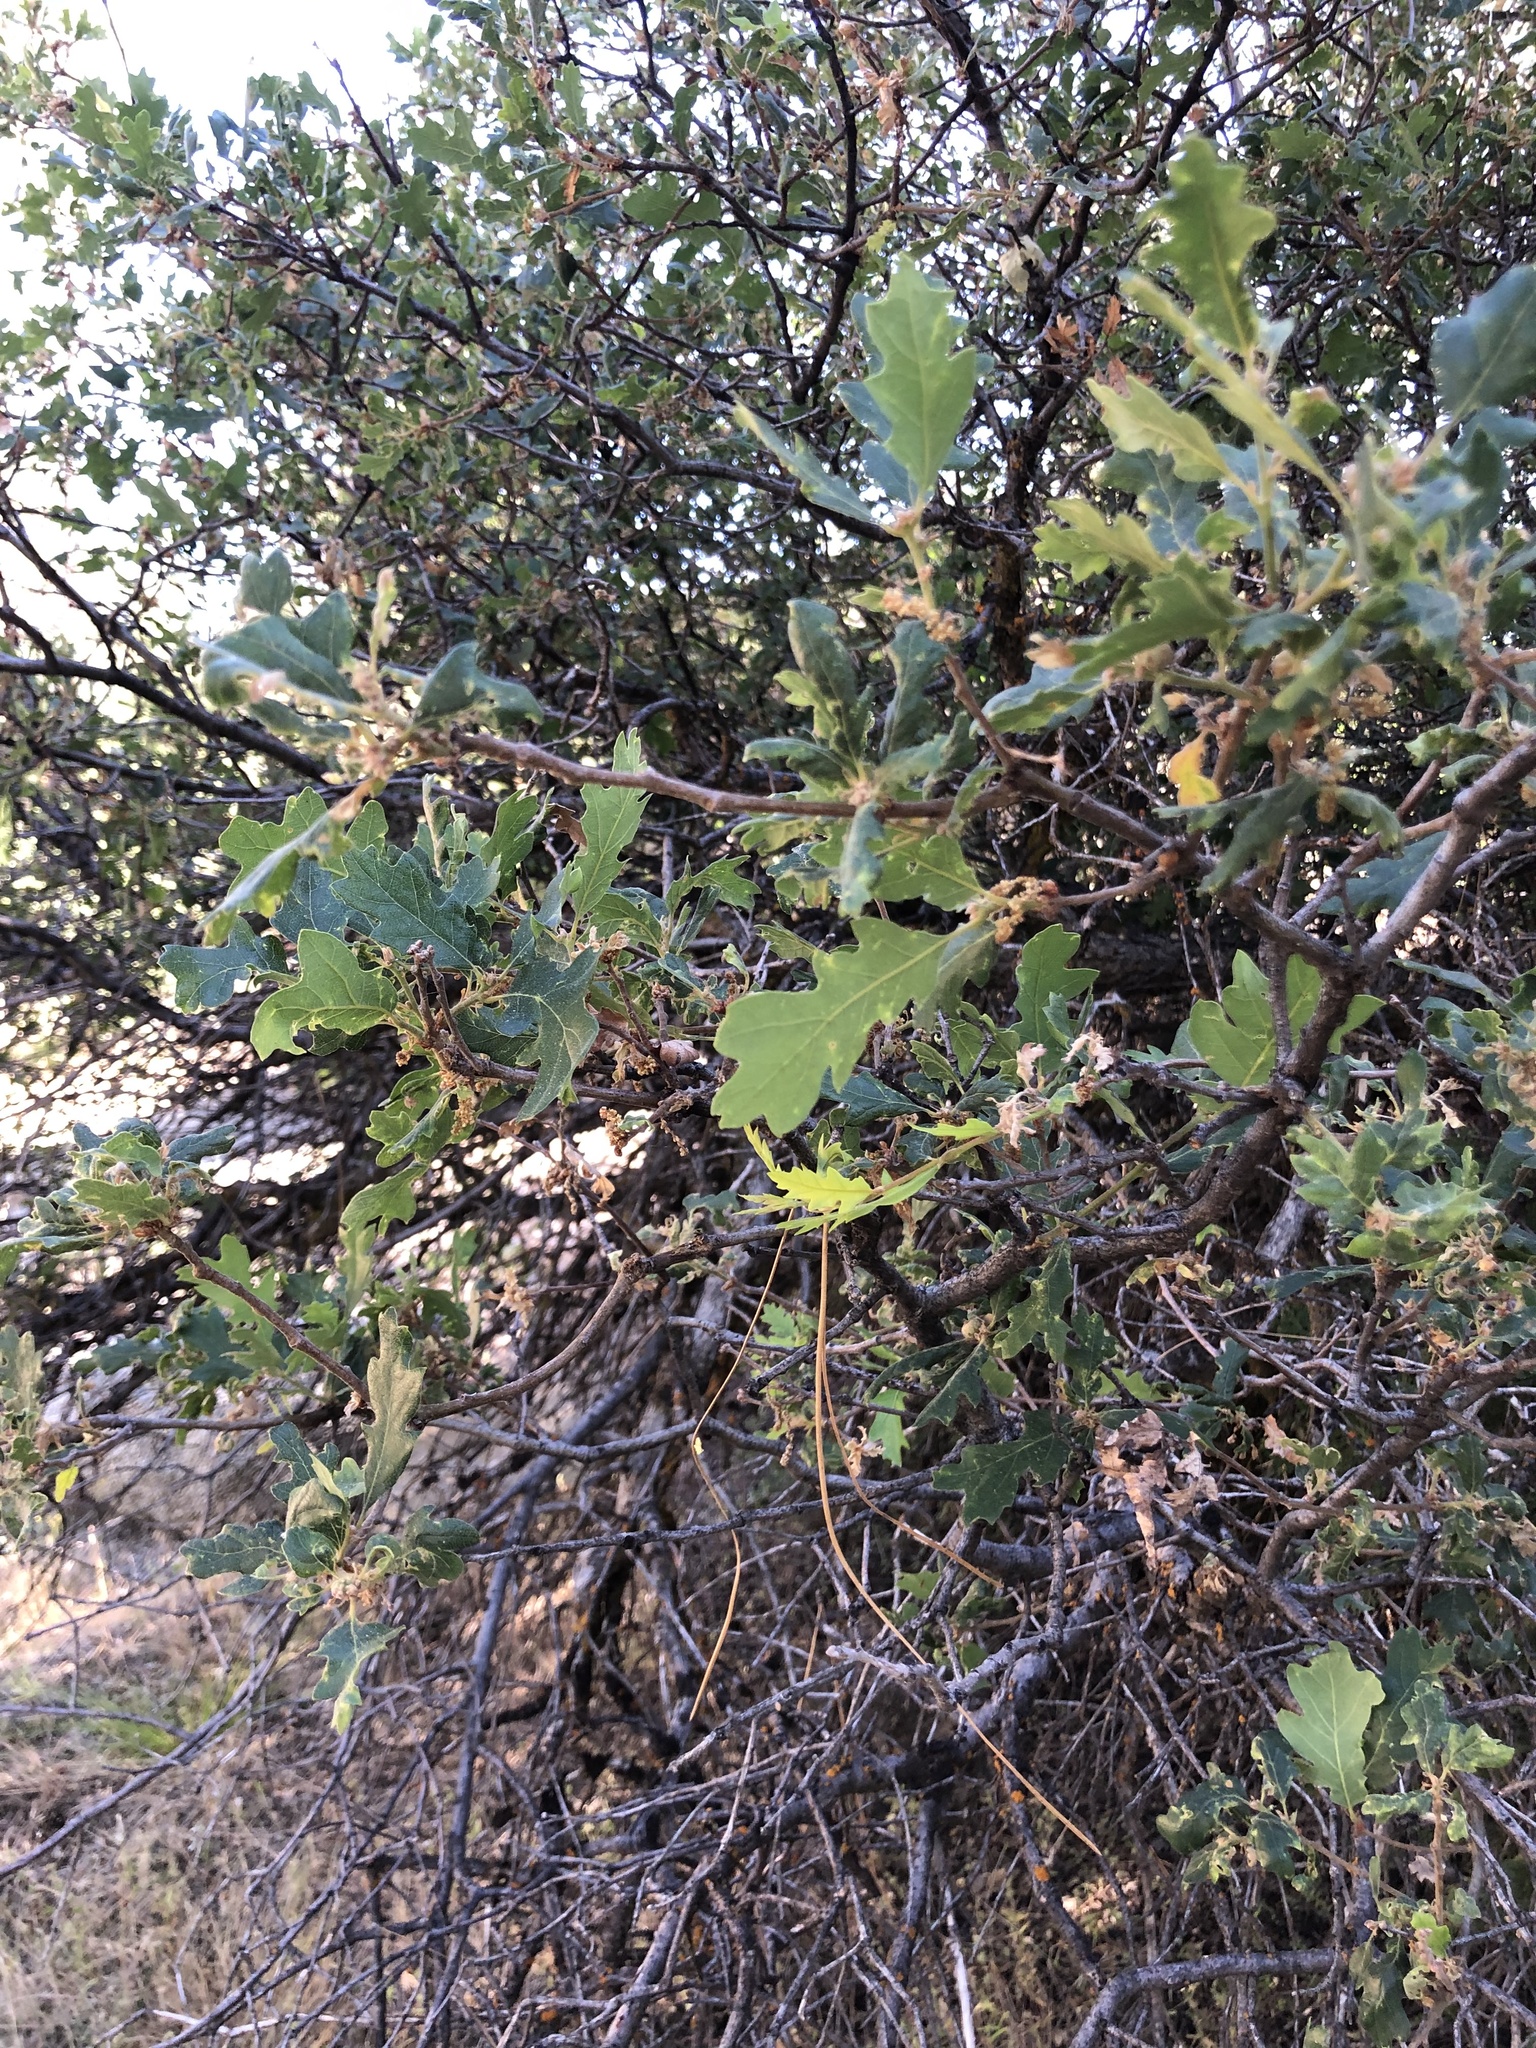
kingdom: Plantae
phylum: Tracheophyta
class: Magnoliopsida
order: Fagales
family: Fagaceae
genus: Quercus
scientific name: Quercus kelloggii
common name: California black oak
